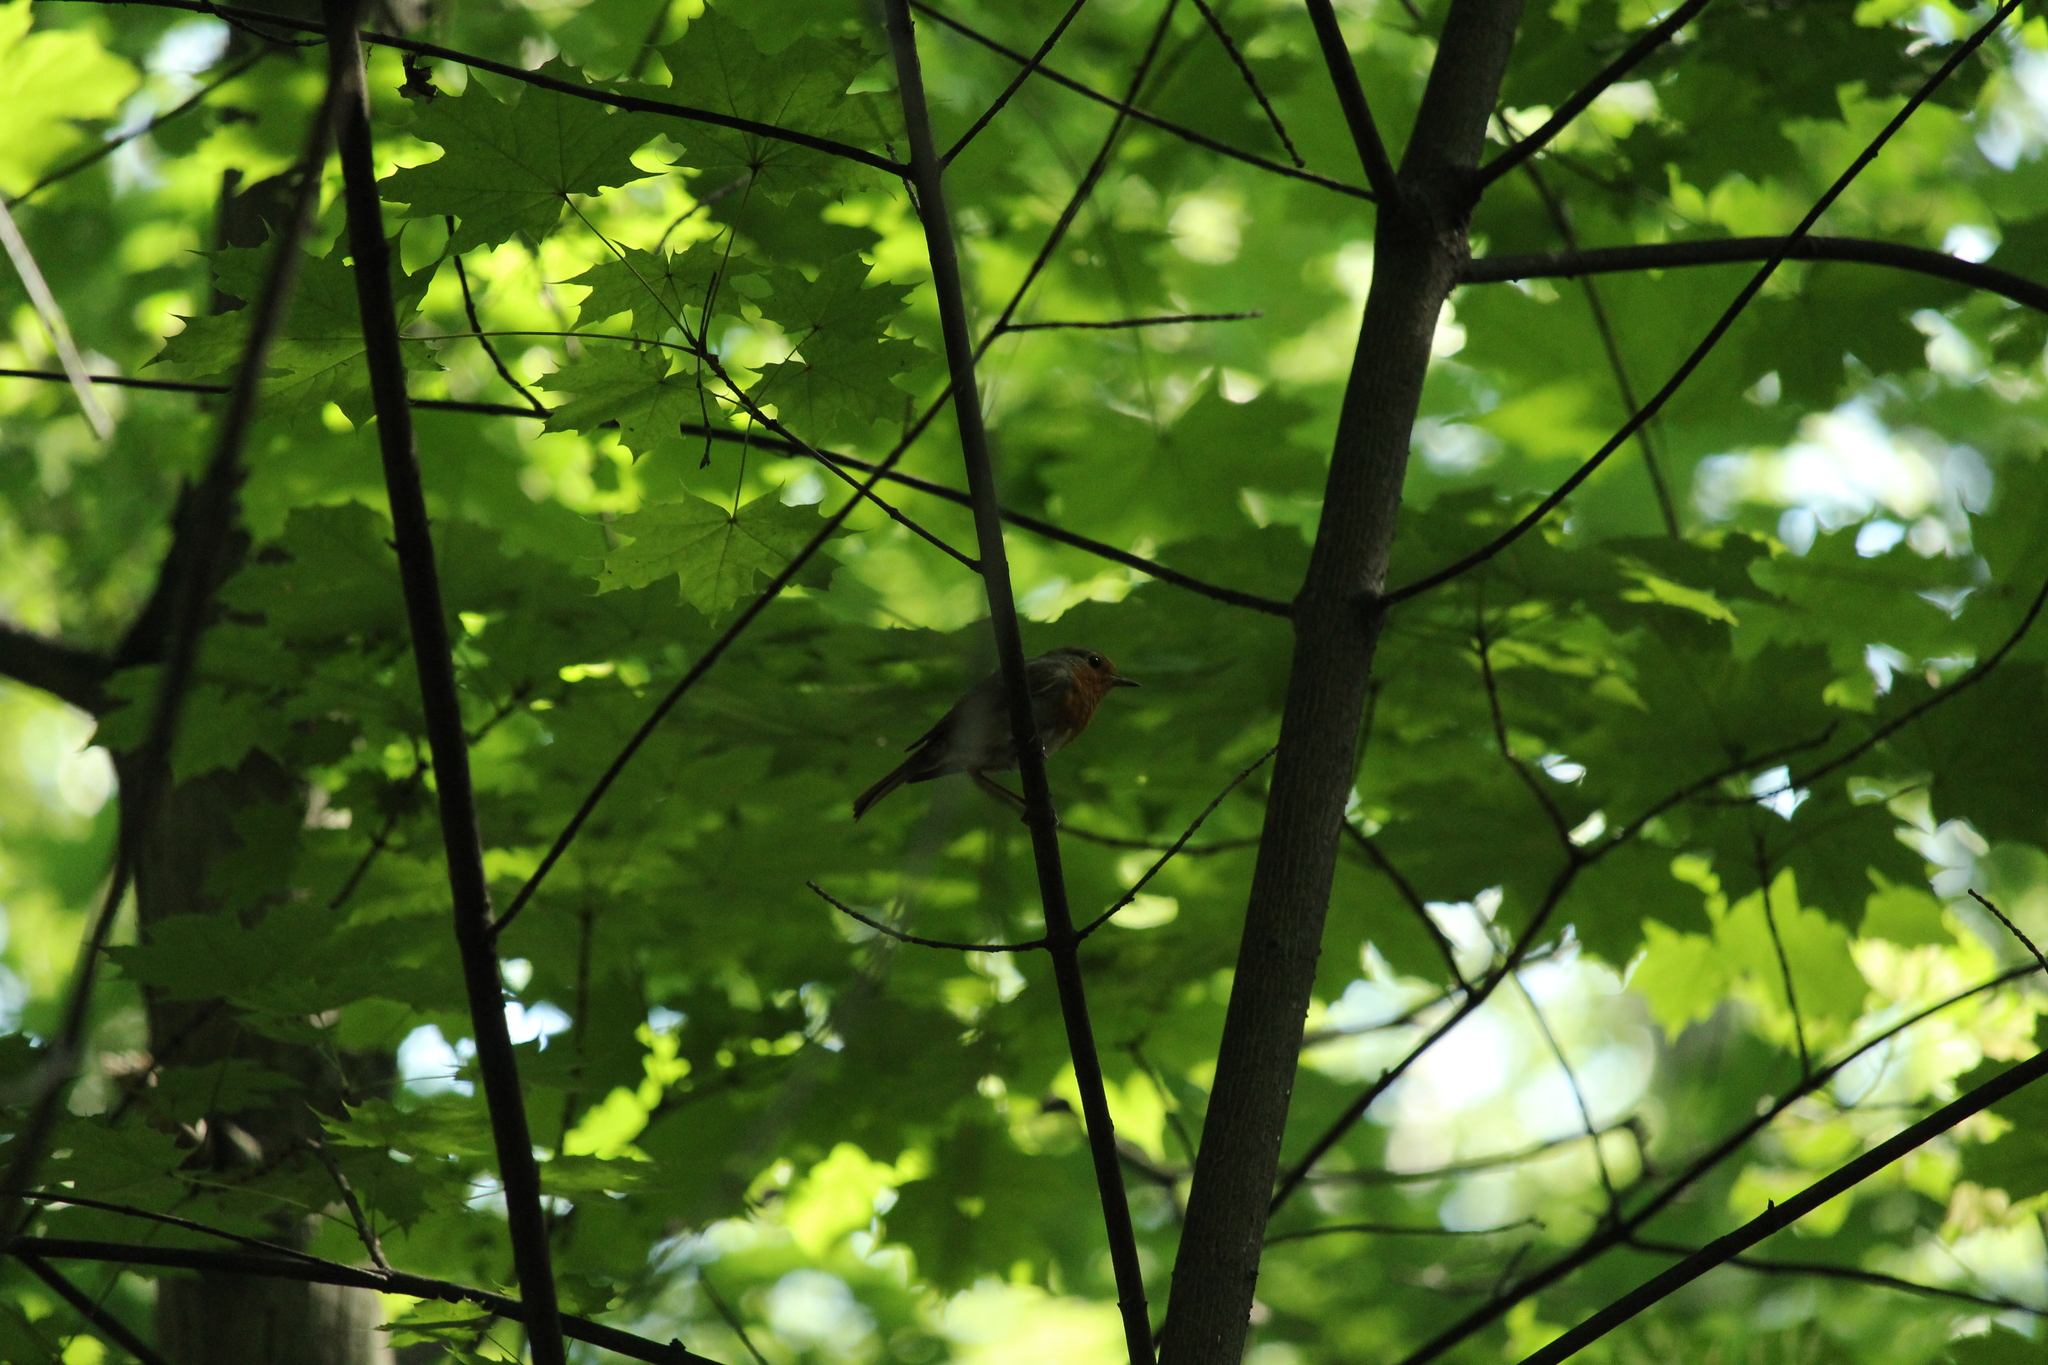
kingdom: Animalia
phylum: Chordata
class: Aves
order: Passeriformes
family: Muscicapidae
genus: Erithacus
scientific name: Erithacus rubecula
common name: European robin
